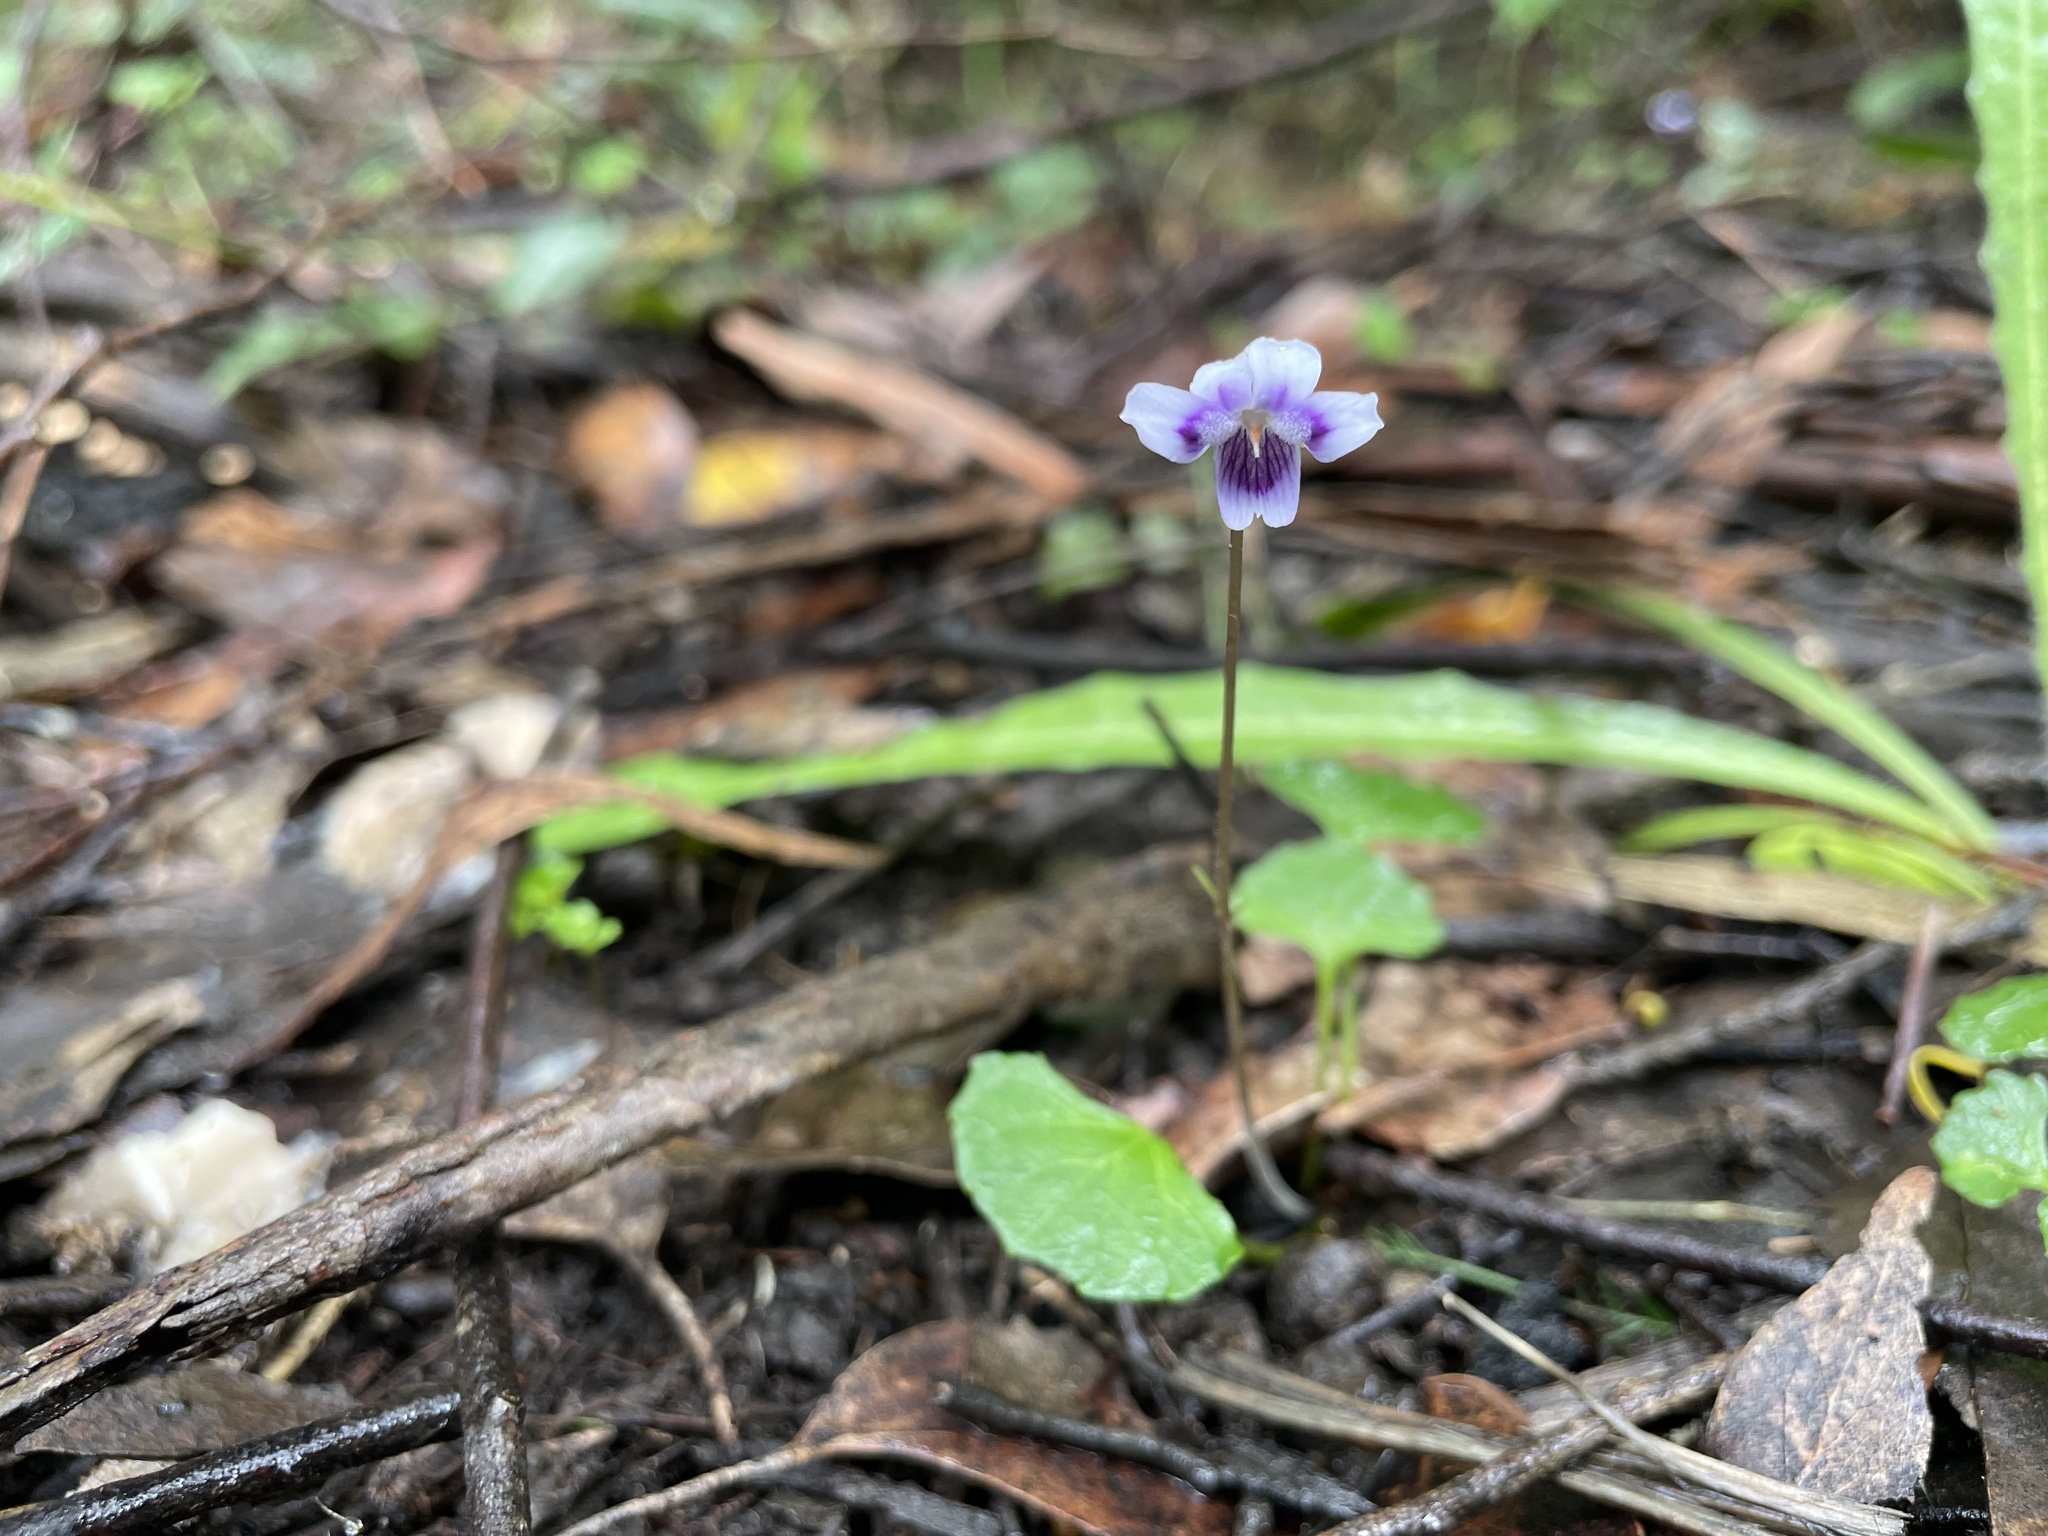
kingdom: Plantae
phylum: Tracheophyta
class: Magnoliopsida
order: Malpighiales
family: Violaceae
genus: Viola
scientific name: Viola hederacea
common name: Australian violet
